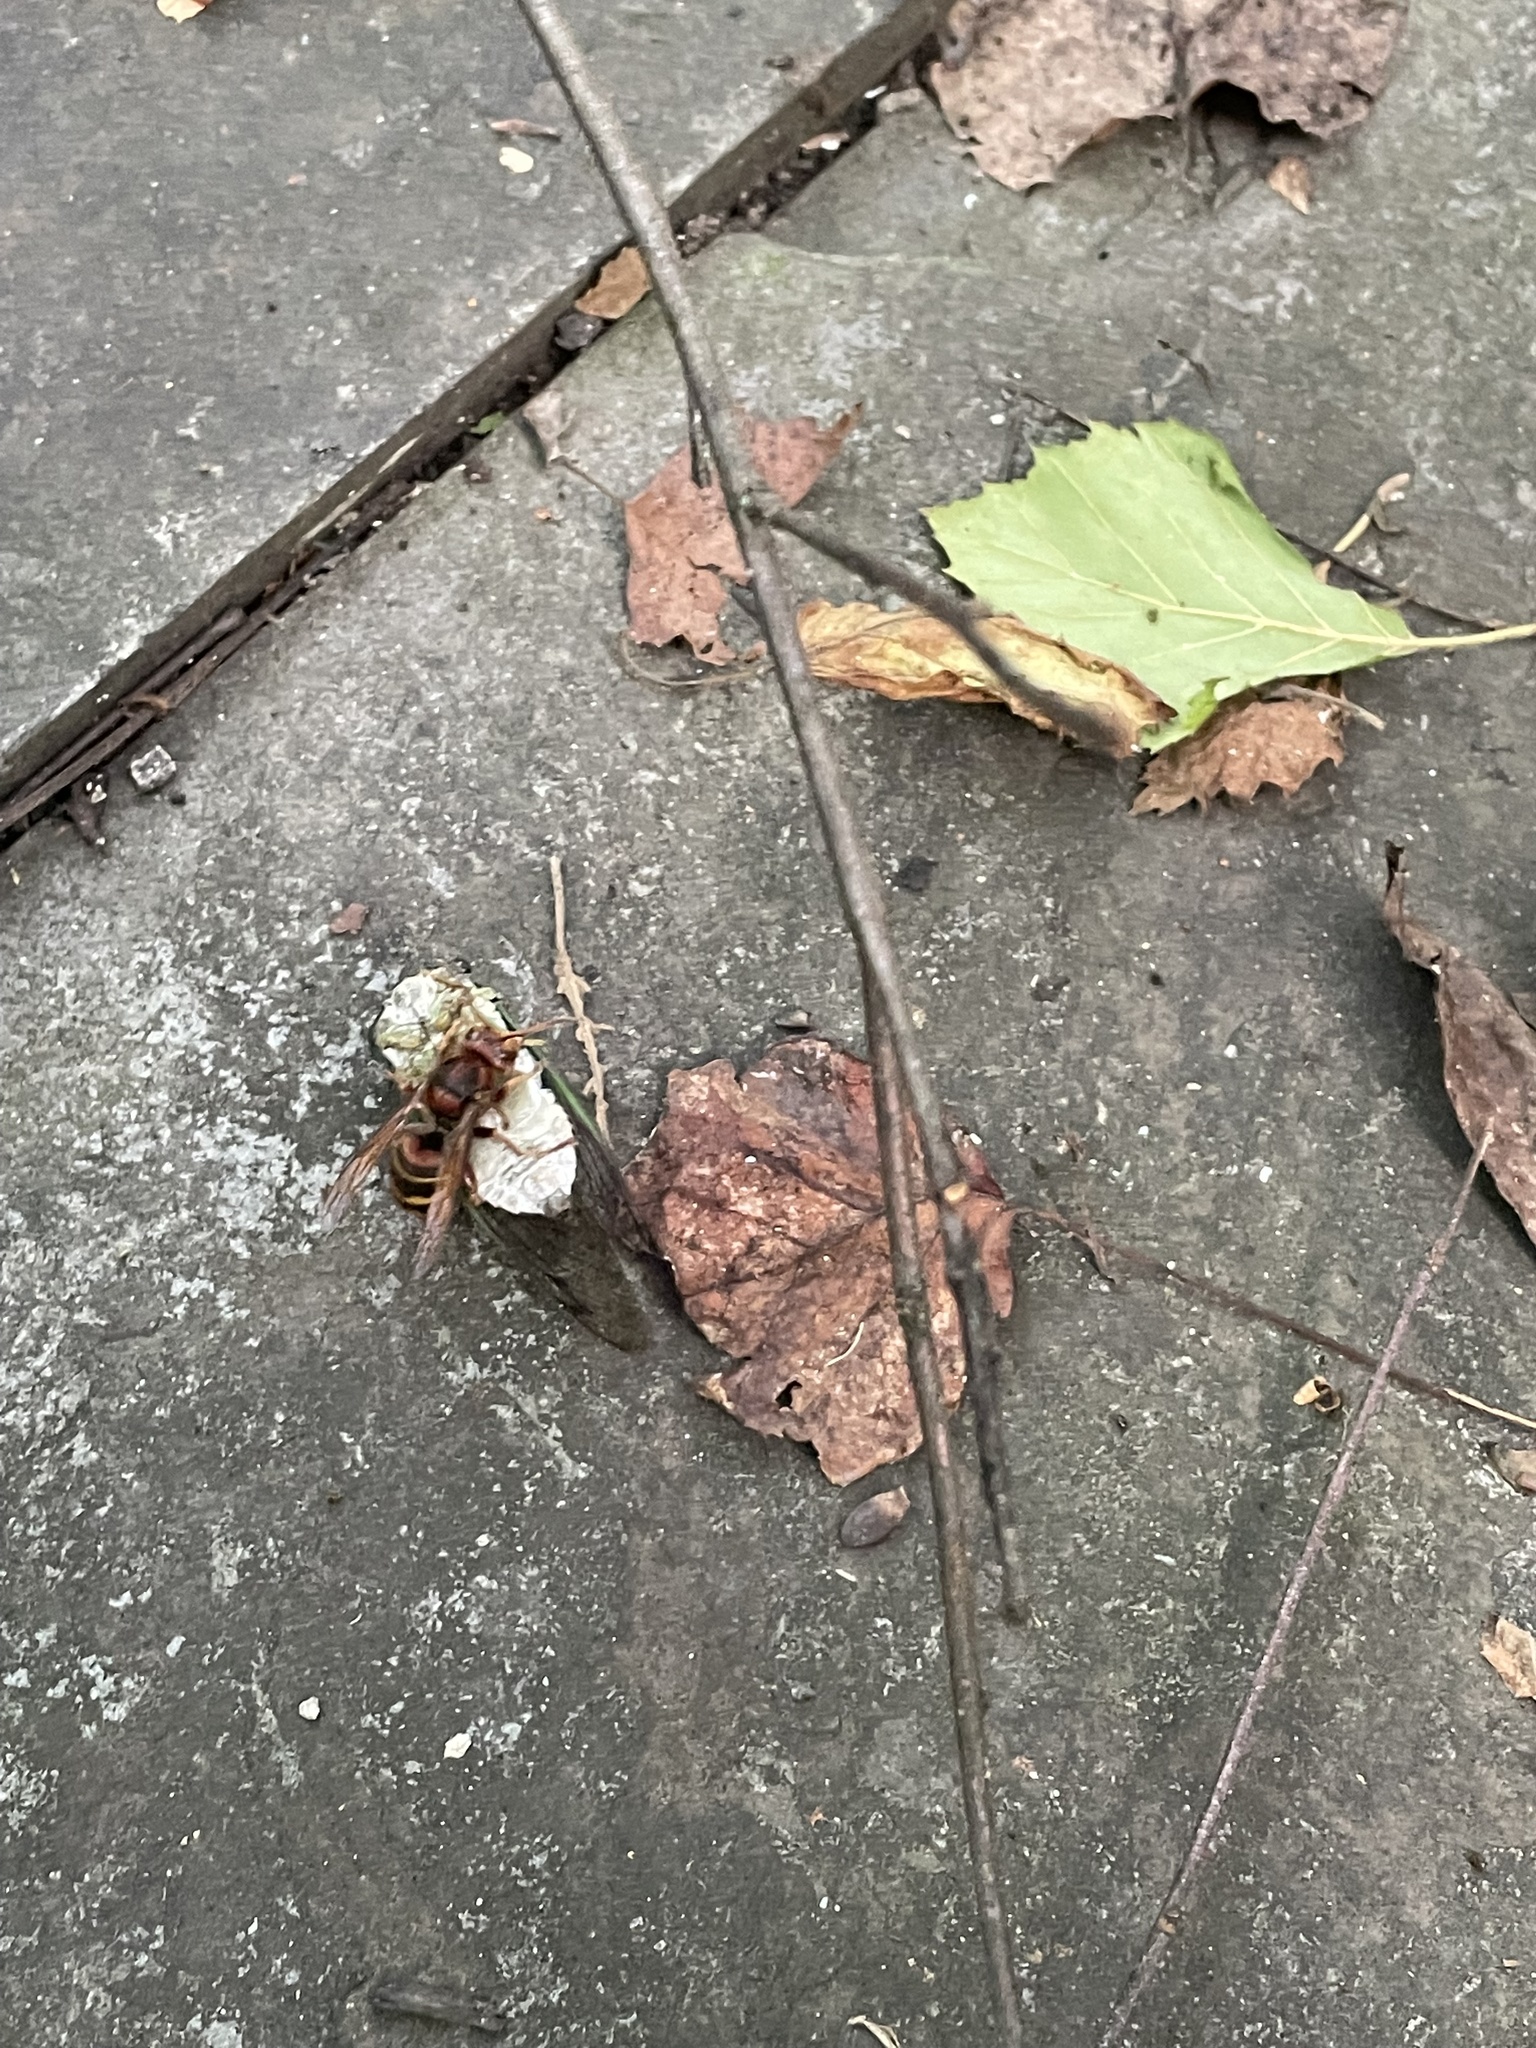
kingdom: Animalia
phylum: Arthropoda
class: Insecta
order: Hymenoptera
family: Vespidae
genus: Vespa
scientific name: Vespa crabro
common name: Hornet
